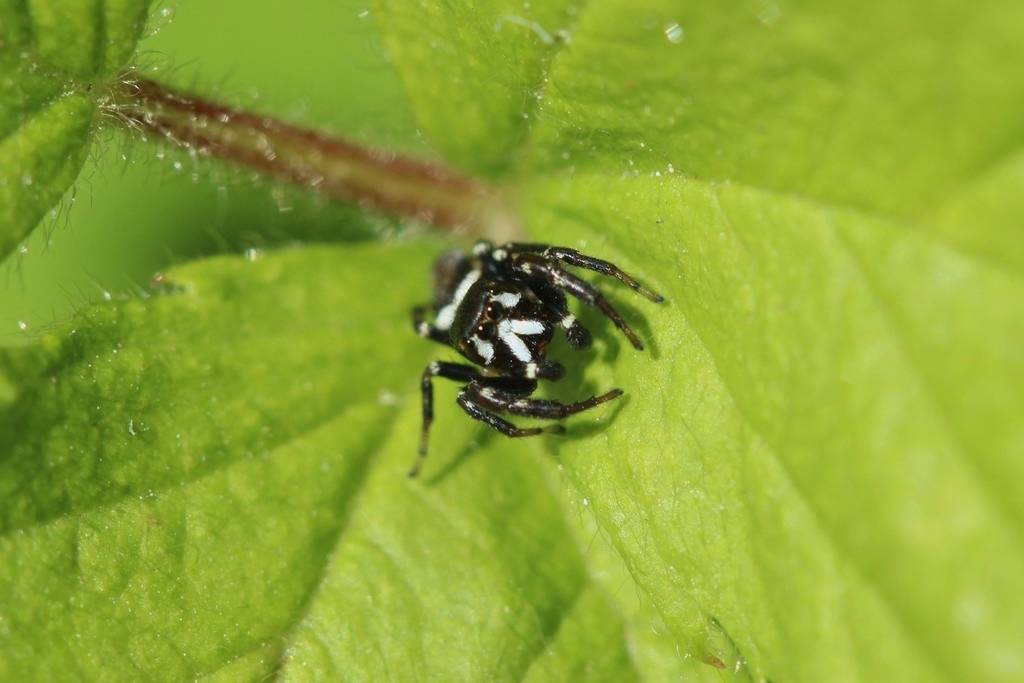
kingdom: Animalia
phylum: Arthropoda
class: Arachnida
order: Araneae
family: Salticidae
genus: Metaphidippus
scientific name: Metaphidippus manni
